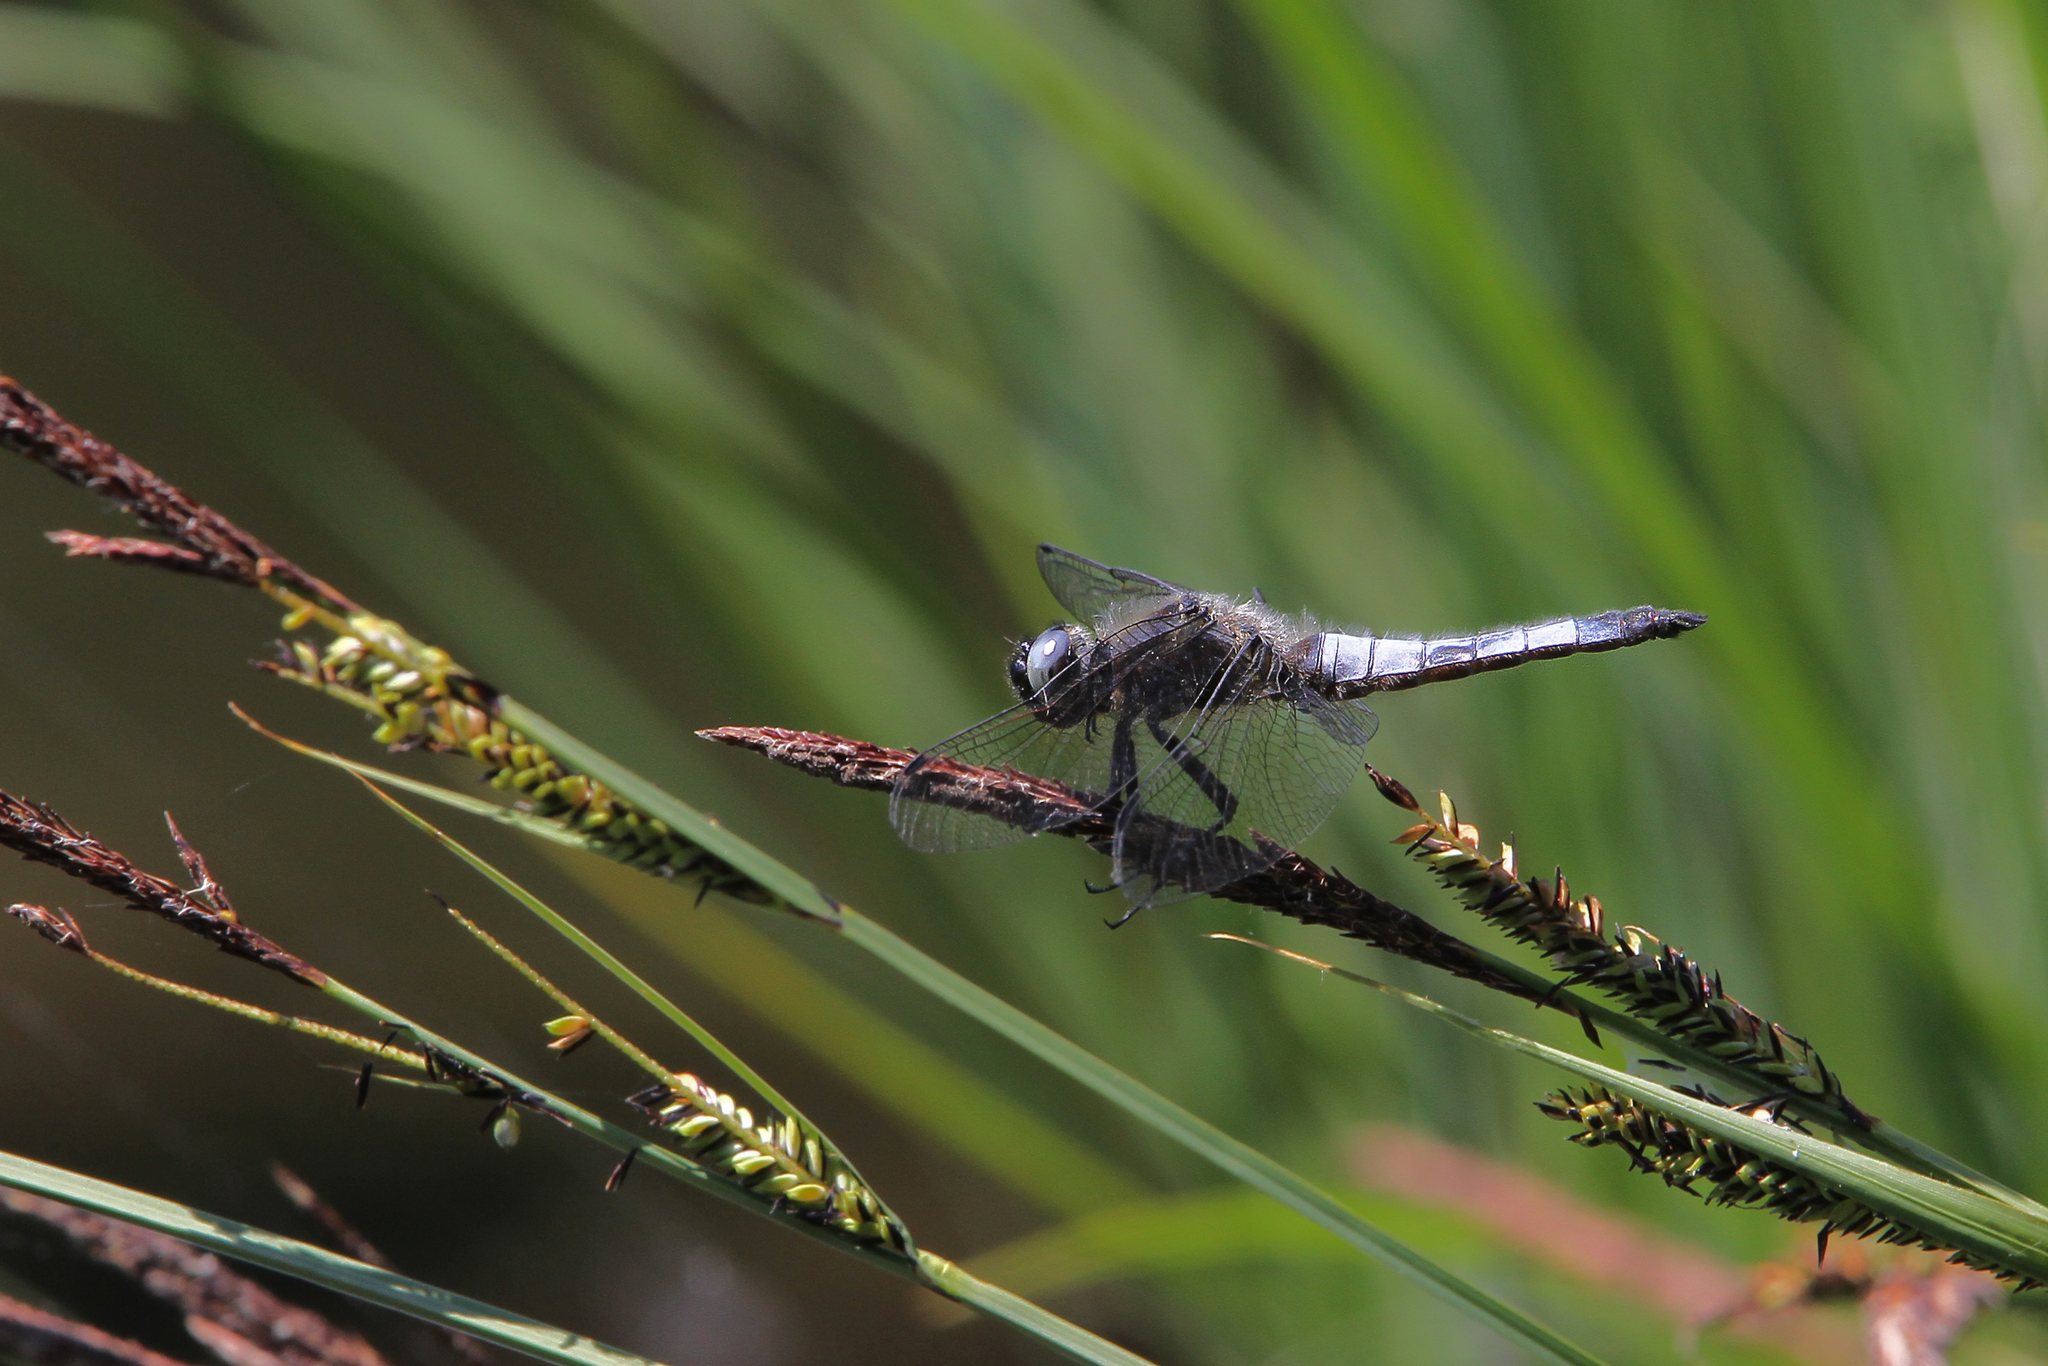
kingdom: Animalia
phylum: Arthropoda
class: Insecta
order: Odonata
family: Libellulidae
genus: Libellula
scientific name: Libellula fulva
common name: Blue chaser
